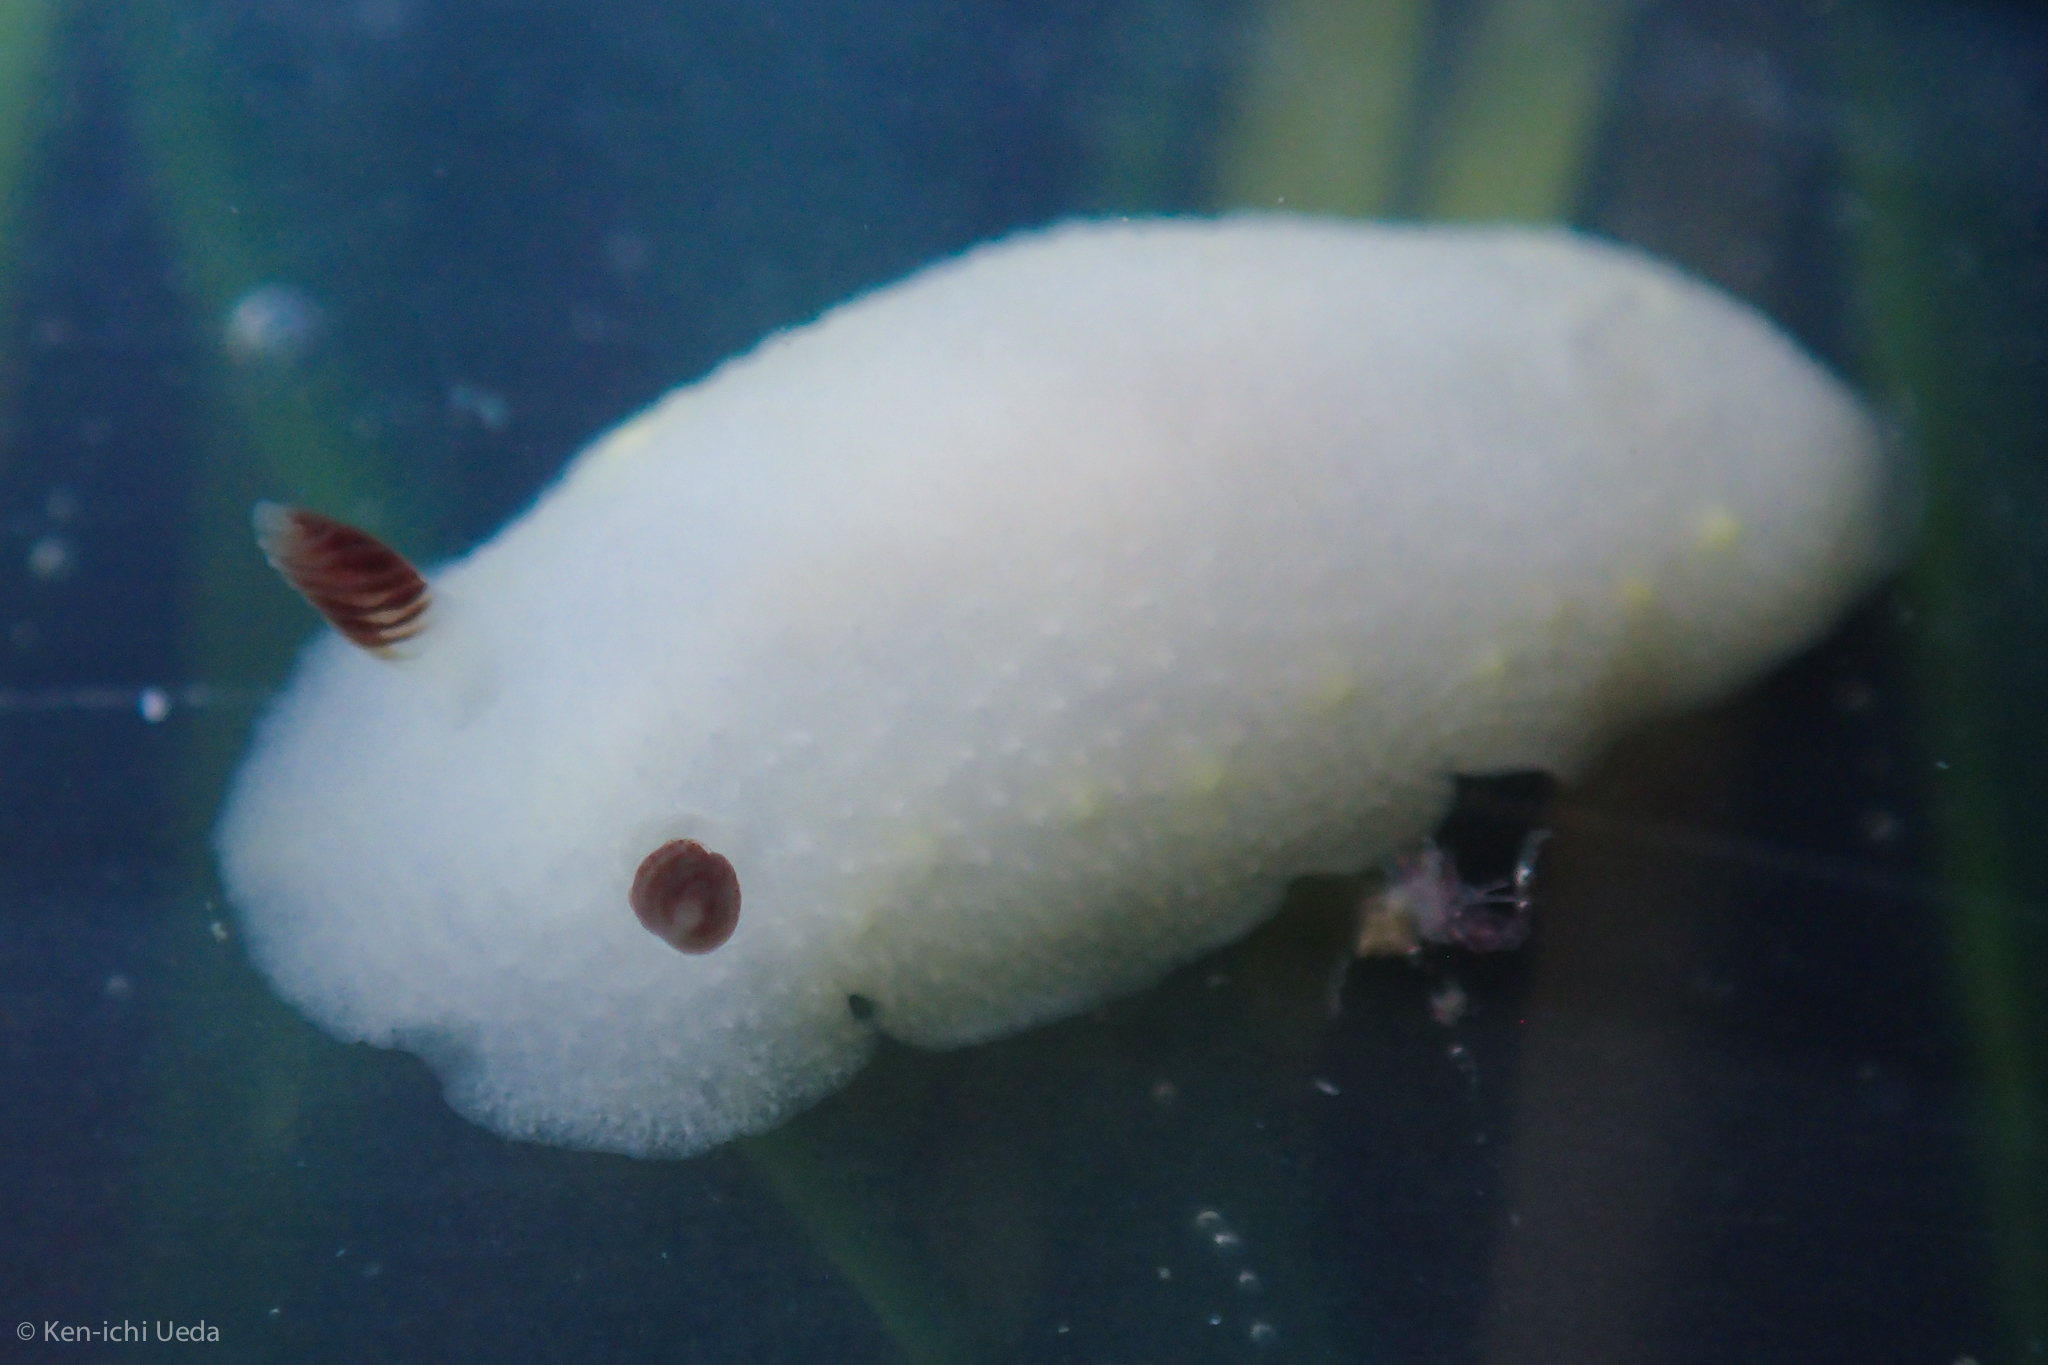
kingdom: Animalia
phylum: Mollusca
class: Gastropoda
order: Nudibranchia
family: Cadlinidae
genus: Cadlina
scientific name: Cadlina flavomaculata
